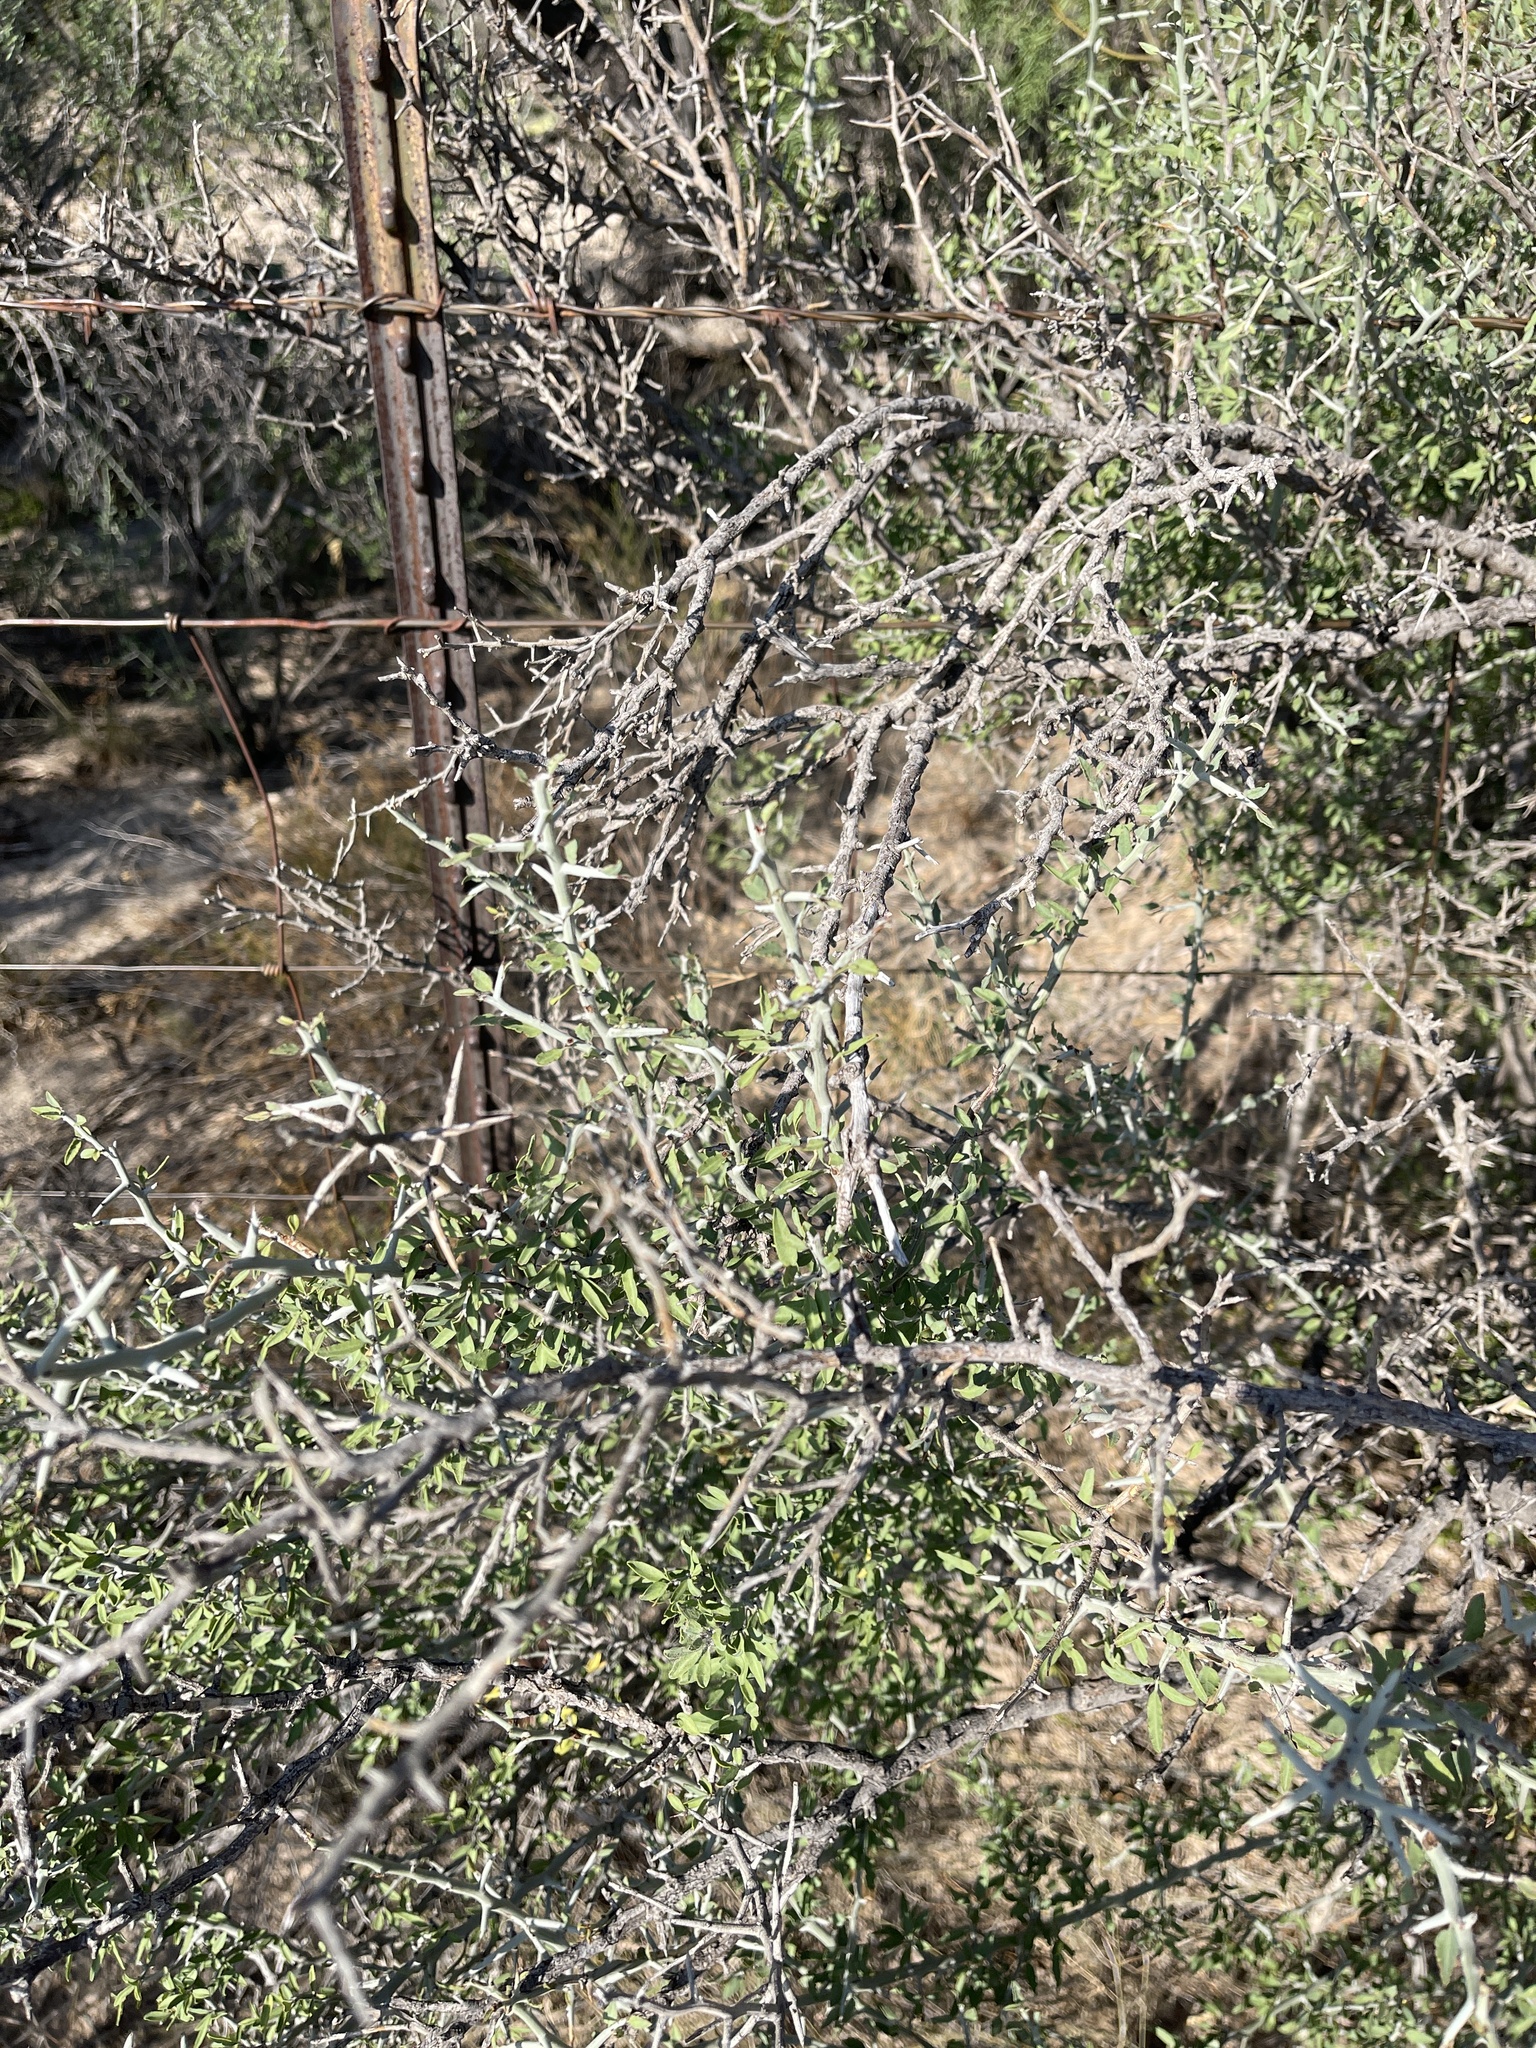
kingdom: Plantae
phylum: Tracheophyta
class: Magnoliopsida
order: Rosales
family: Rhamnaceae
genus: Sarcomphalus
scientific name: Sarcomphalus obtusifolius
